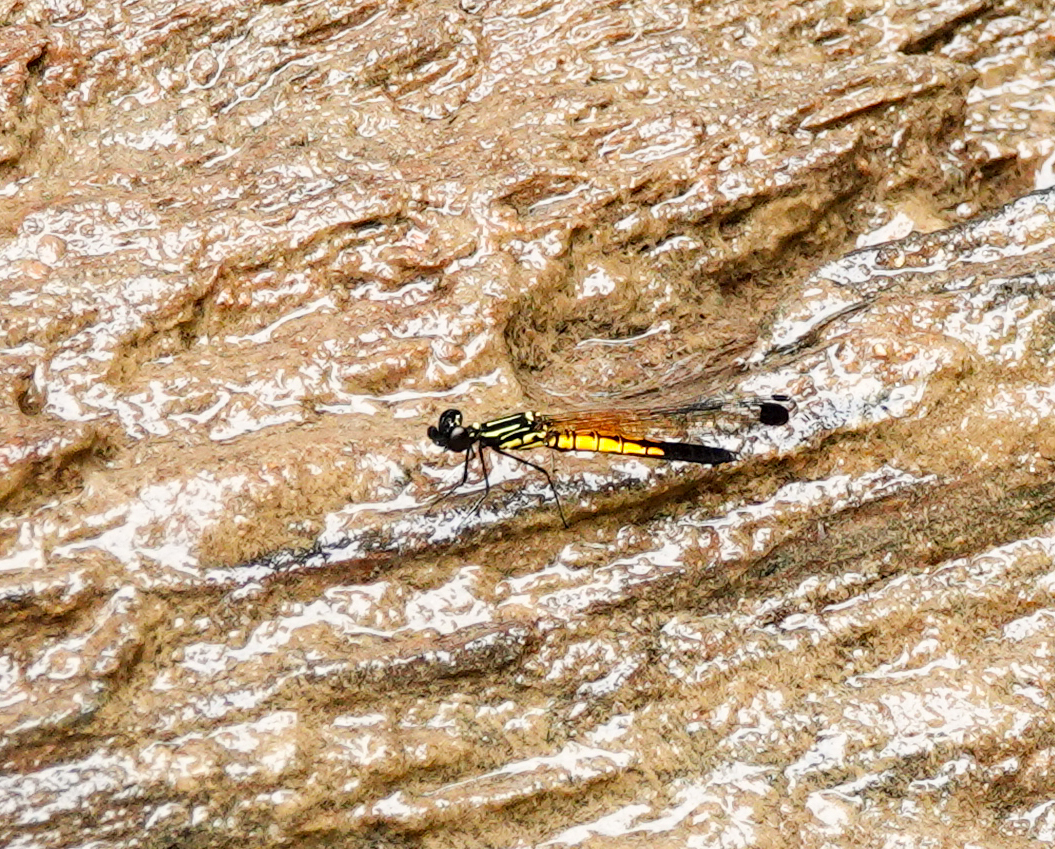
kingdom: Animalia
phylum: Arthropoda
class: Insecta
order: Odonata
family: Chlorocyphidae
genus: Libellago
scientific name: Libellago lineata
